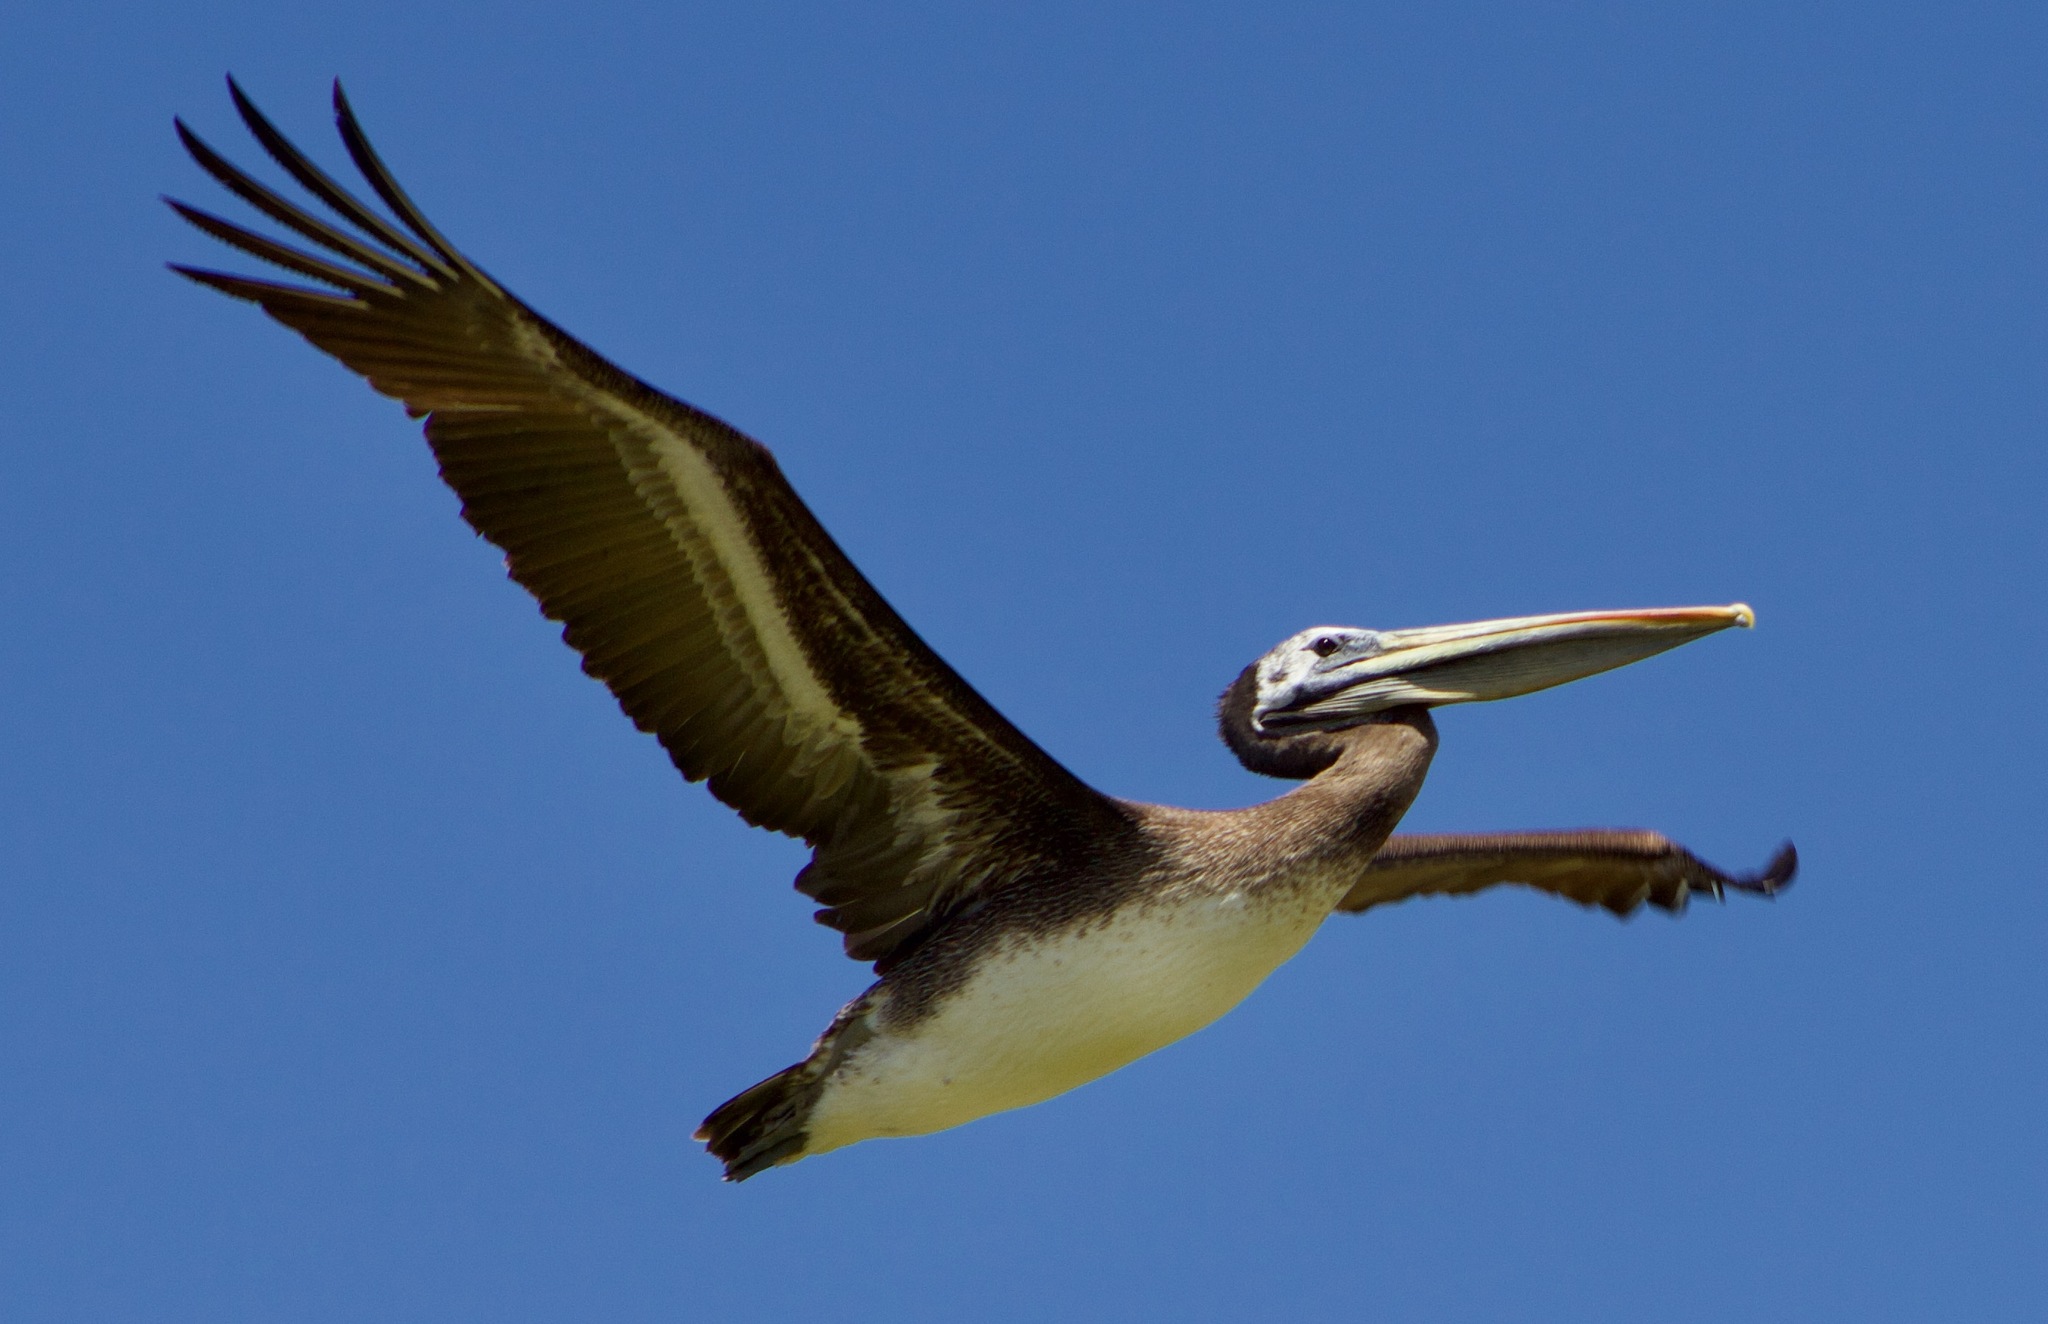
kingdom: Animalia
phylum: Chordata
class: Aves
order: Pelecaniformes
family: Pelecanidae
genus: Pelecanus
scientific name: Pelecanus thagus
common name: Peruvian pelican
